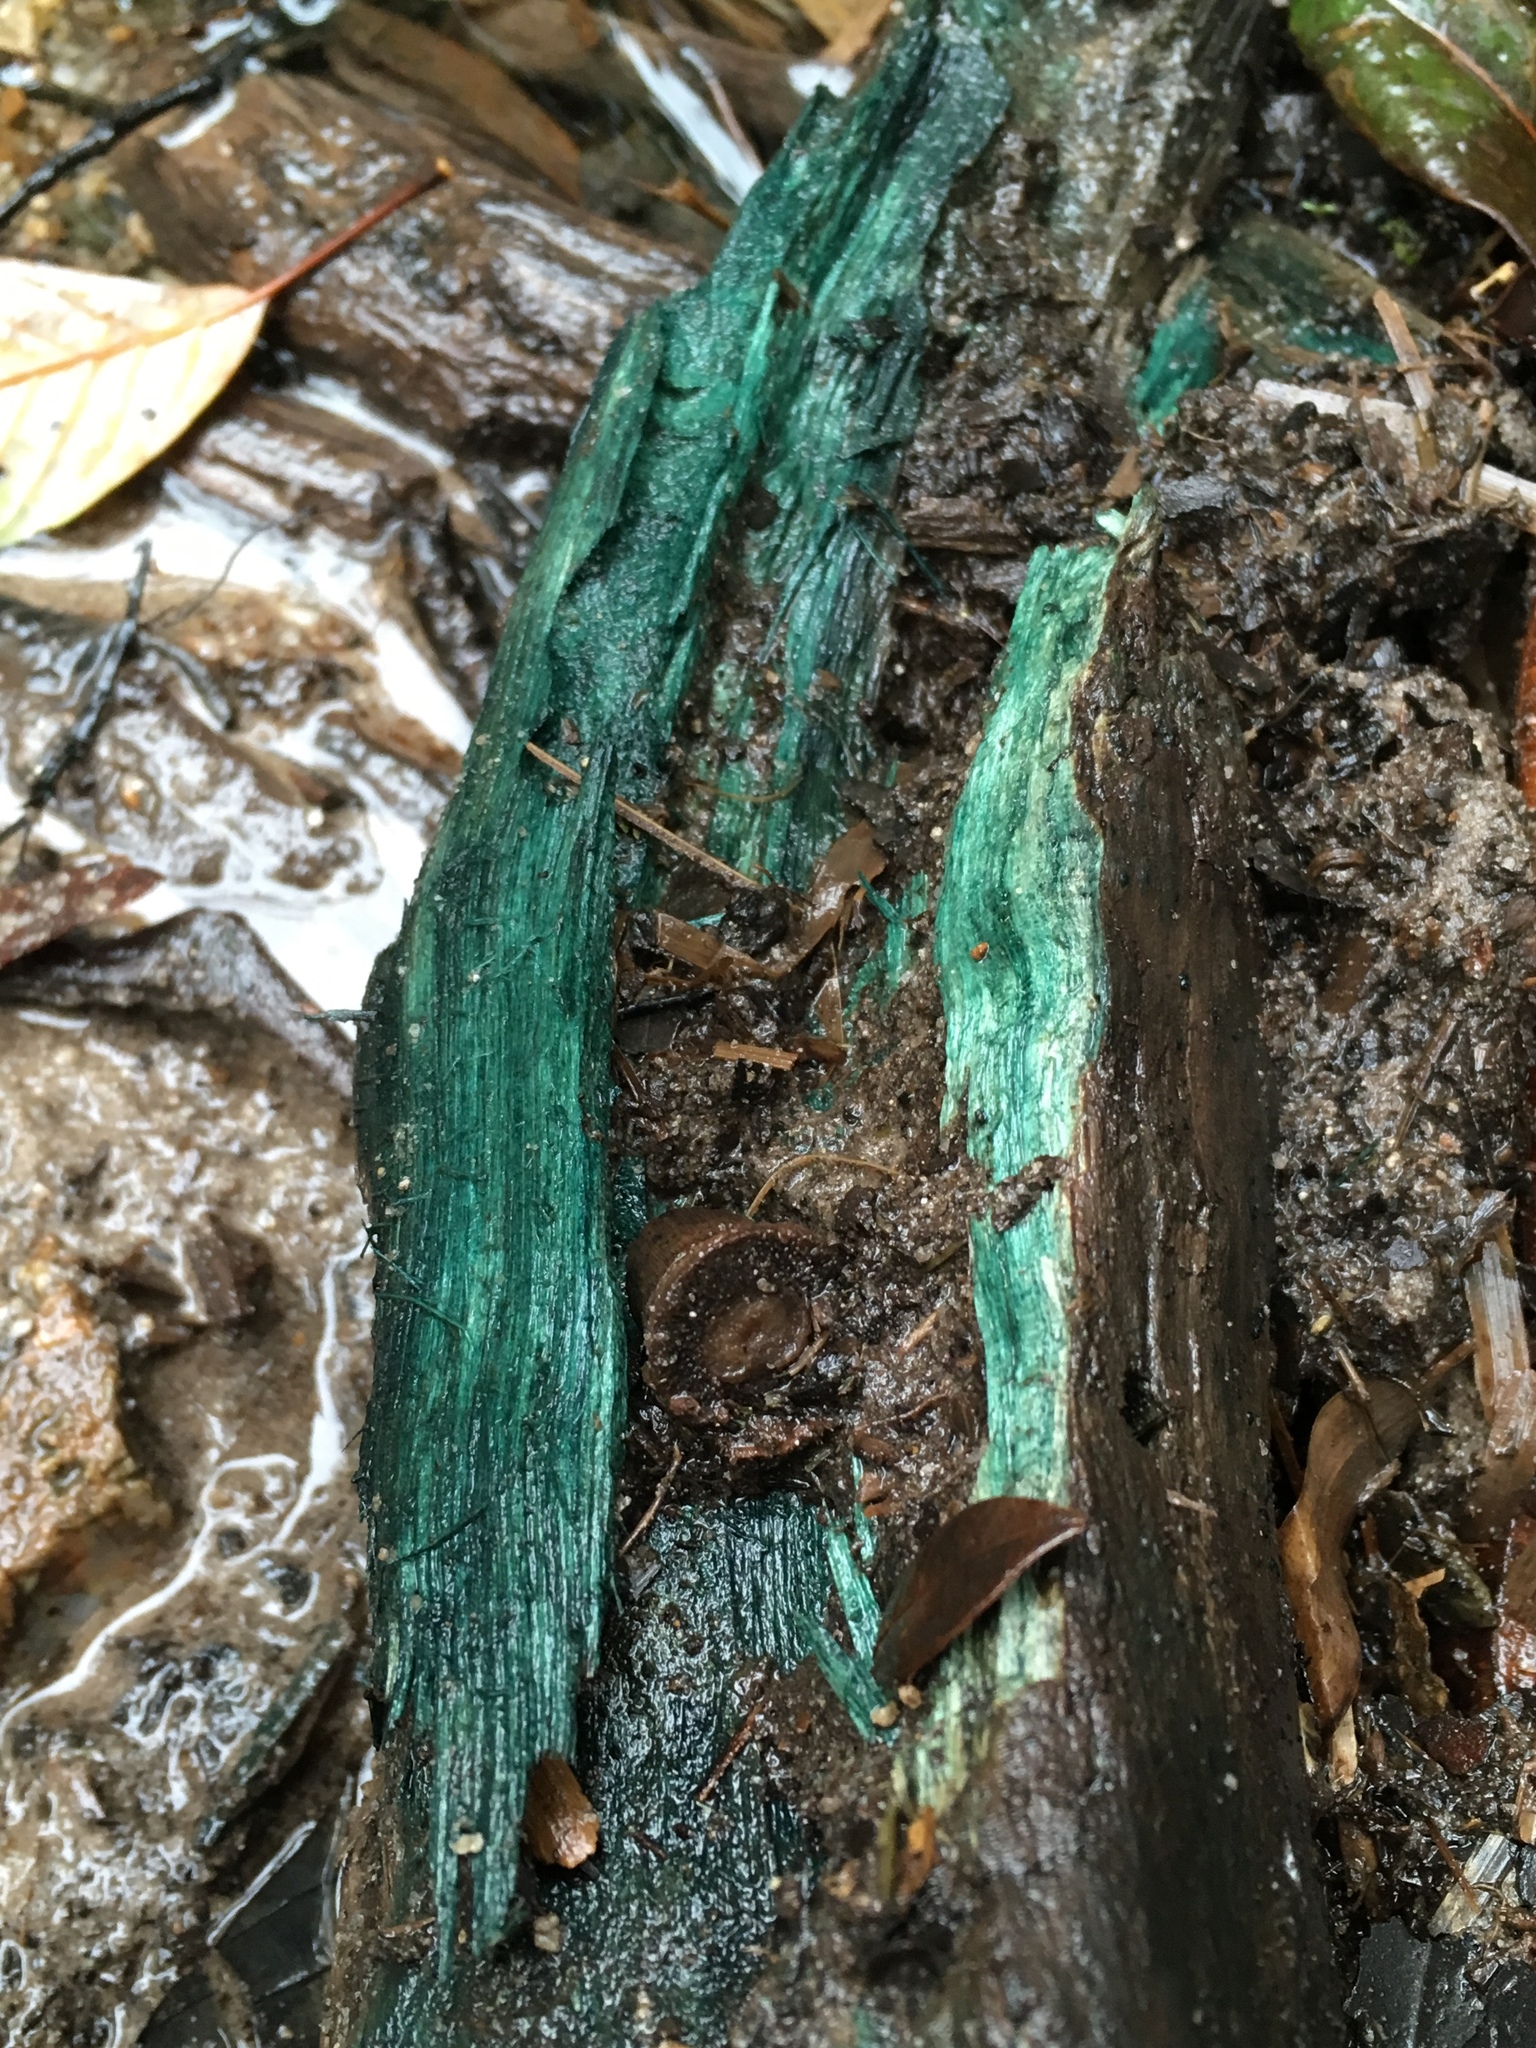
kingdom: Fungi
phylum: Ascomycota
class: Leotiomycetes
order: Helotiales
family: Chlorociboriaceae
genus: Chlorociboria
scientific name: Chlorociboria
